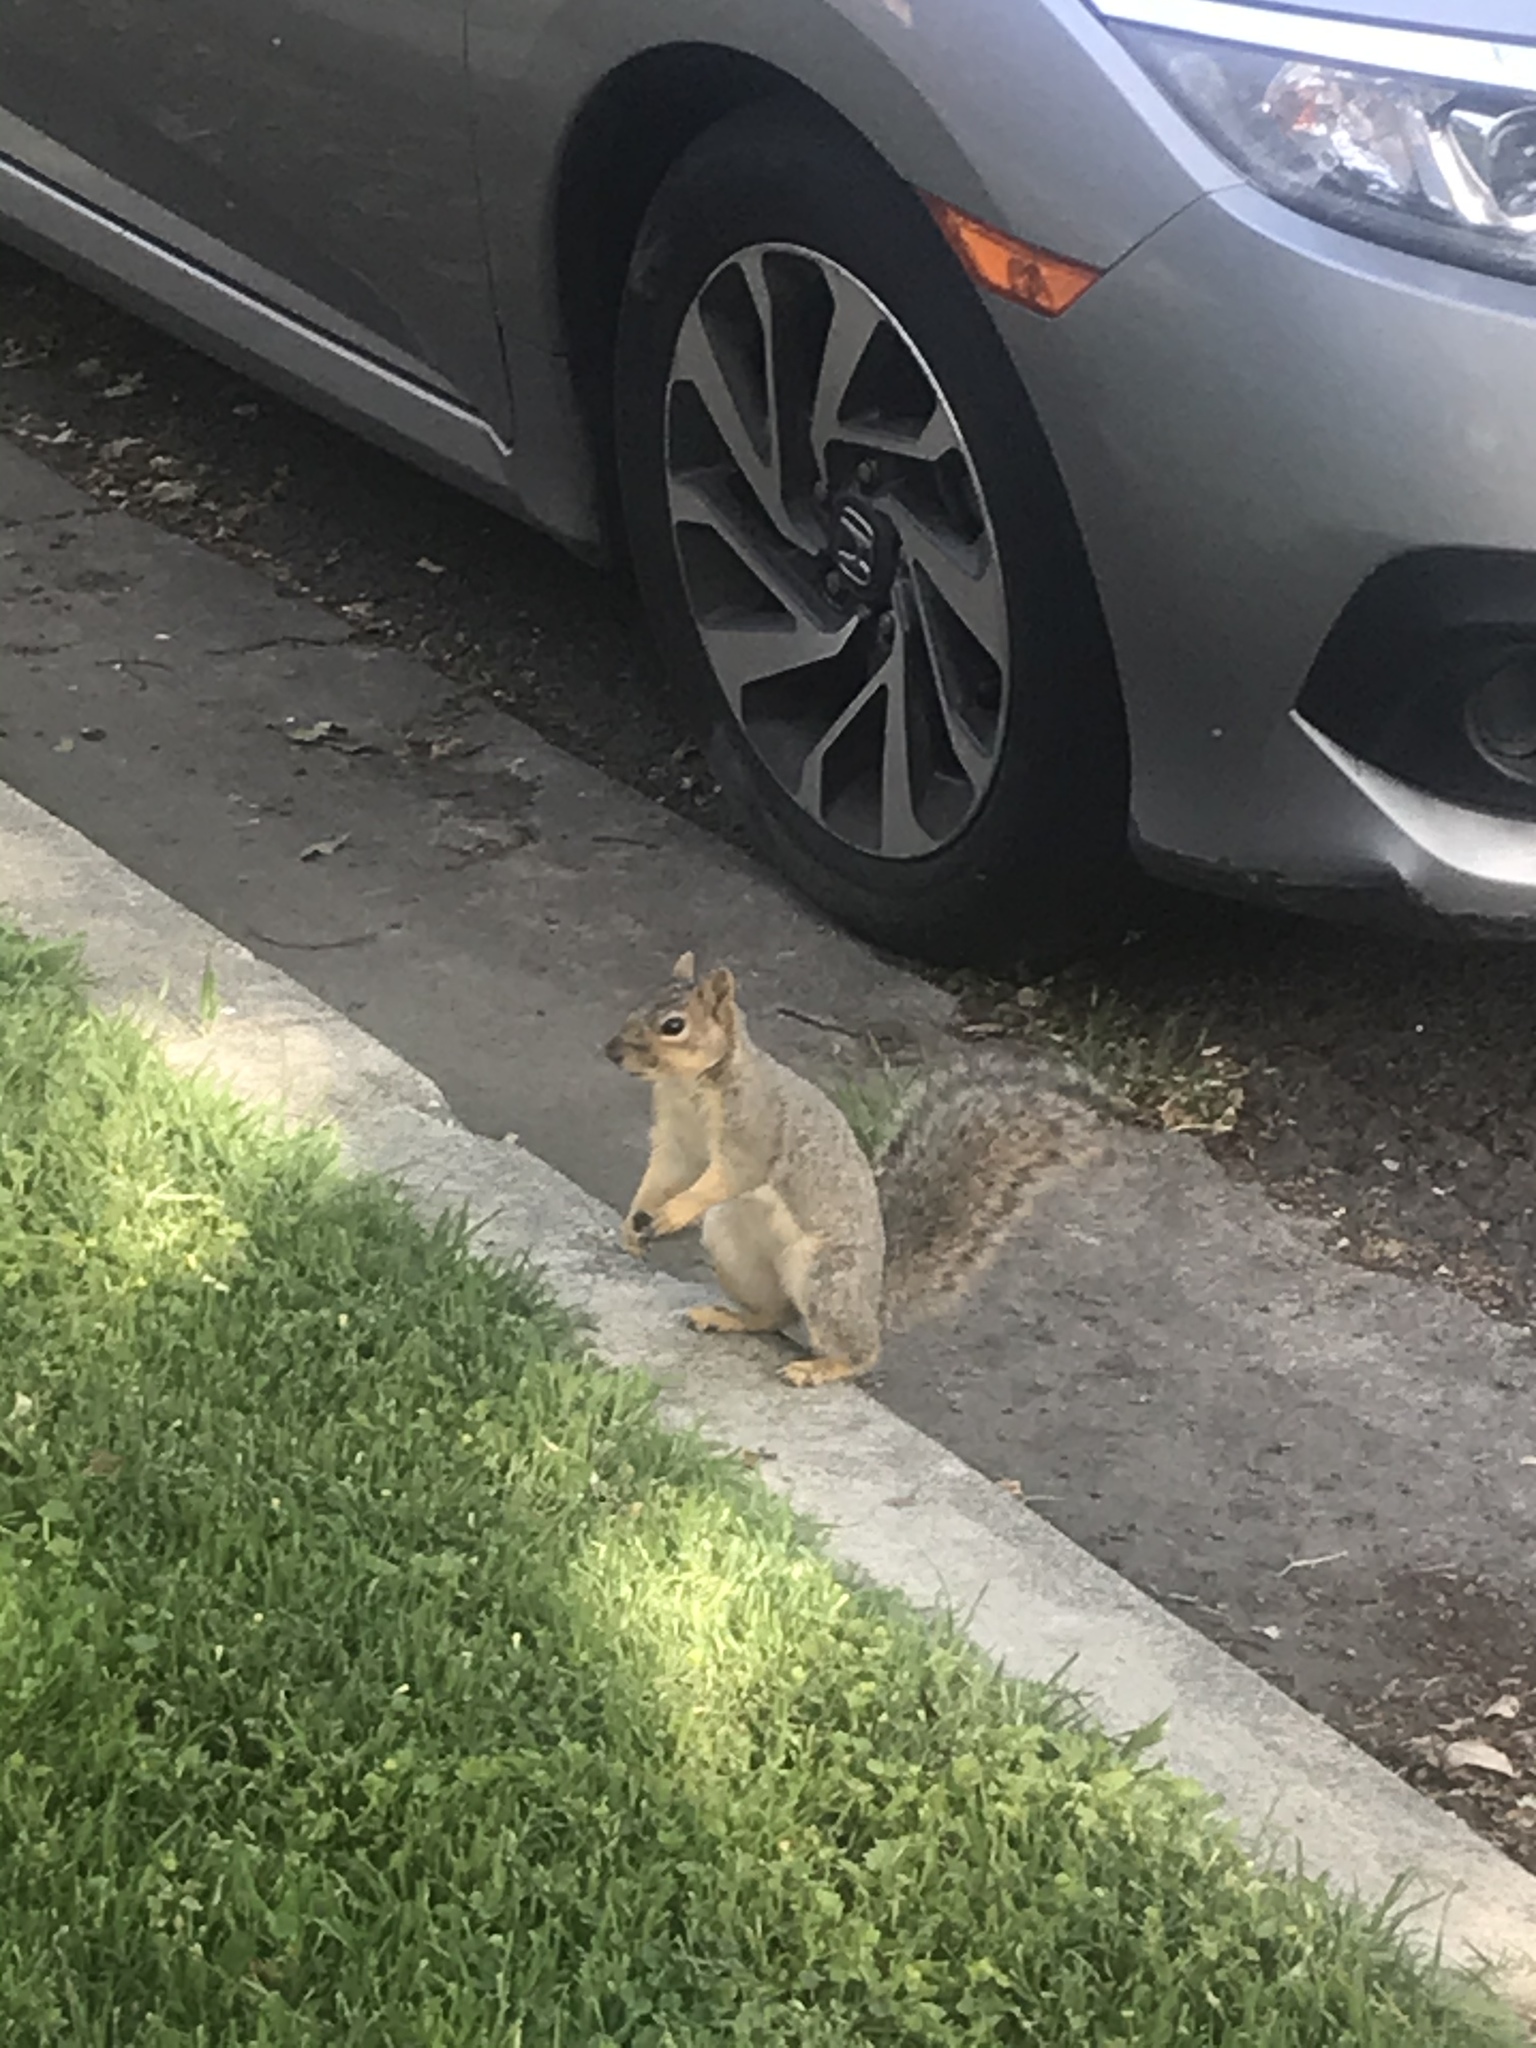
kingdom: Animalia
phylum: Chordata
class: Mammalia
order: Rodentia
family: Sciuridae
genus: Sciurus
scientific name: Sciurus niger
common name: Fox squirrel
